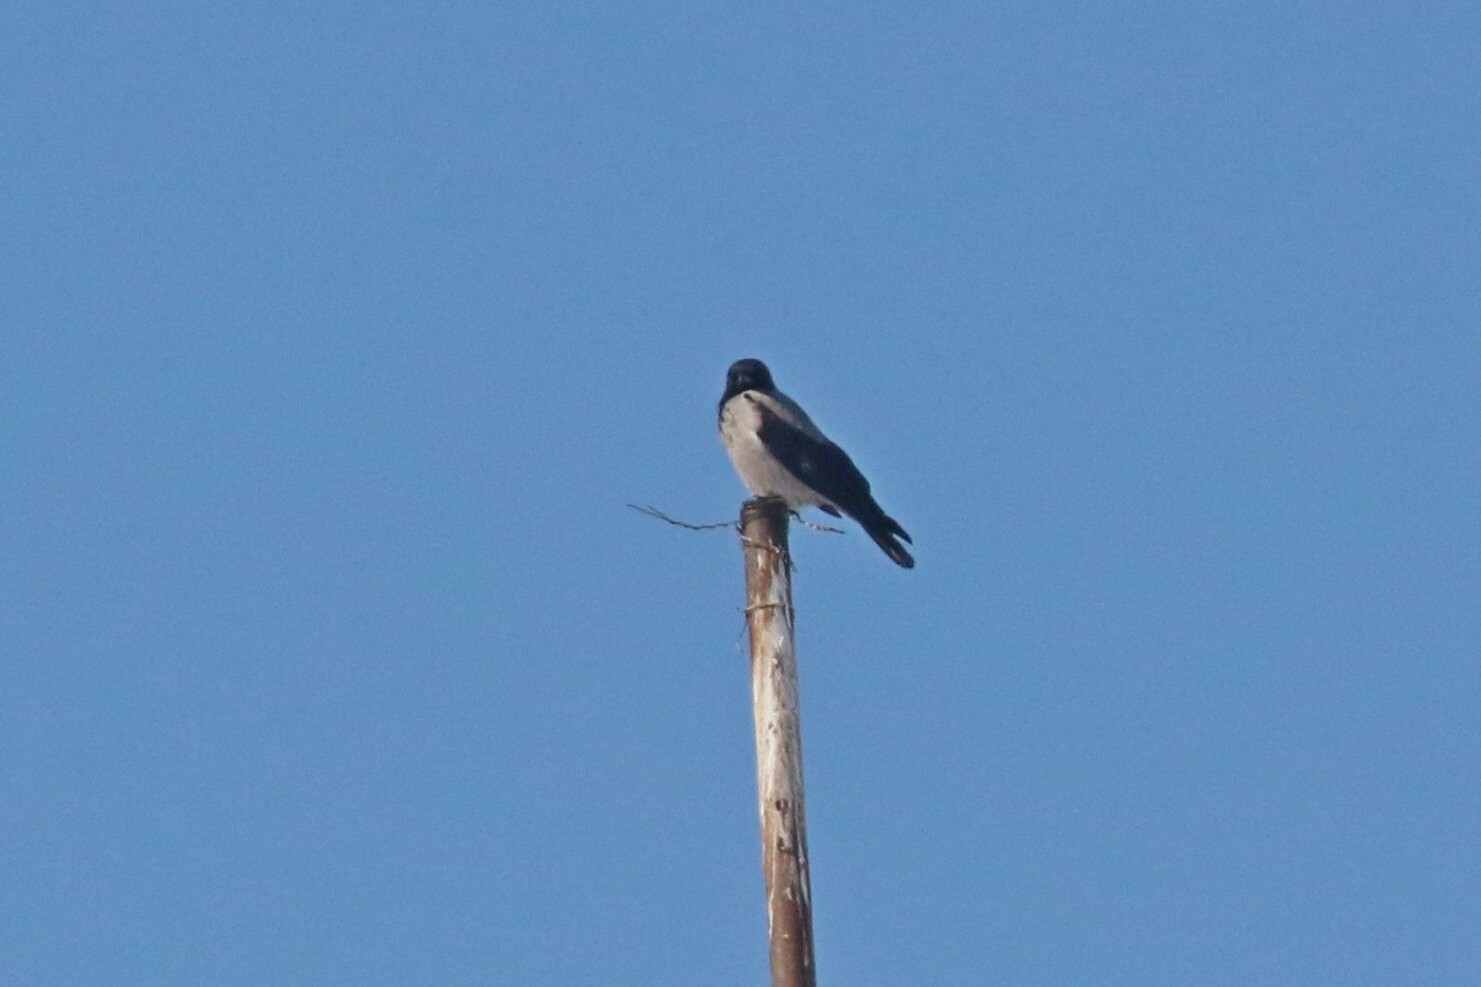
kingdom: Animalia
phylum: Chordata
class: Aves
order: Passeriformes
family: Corvidae
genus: Corvus
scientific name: Corvus cornix
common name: Hooded crow
